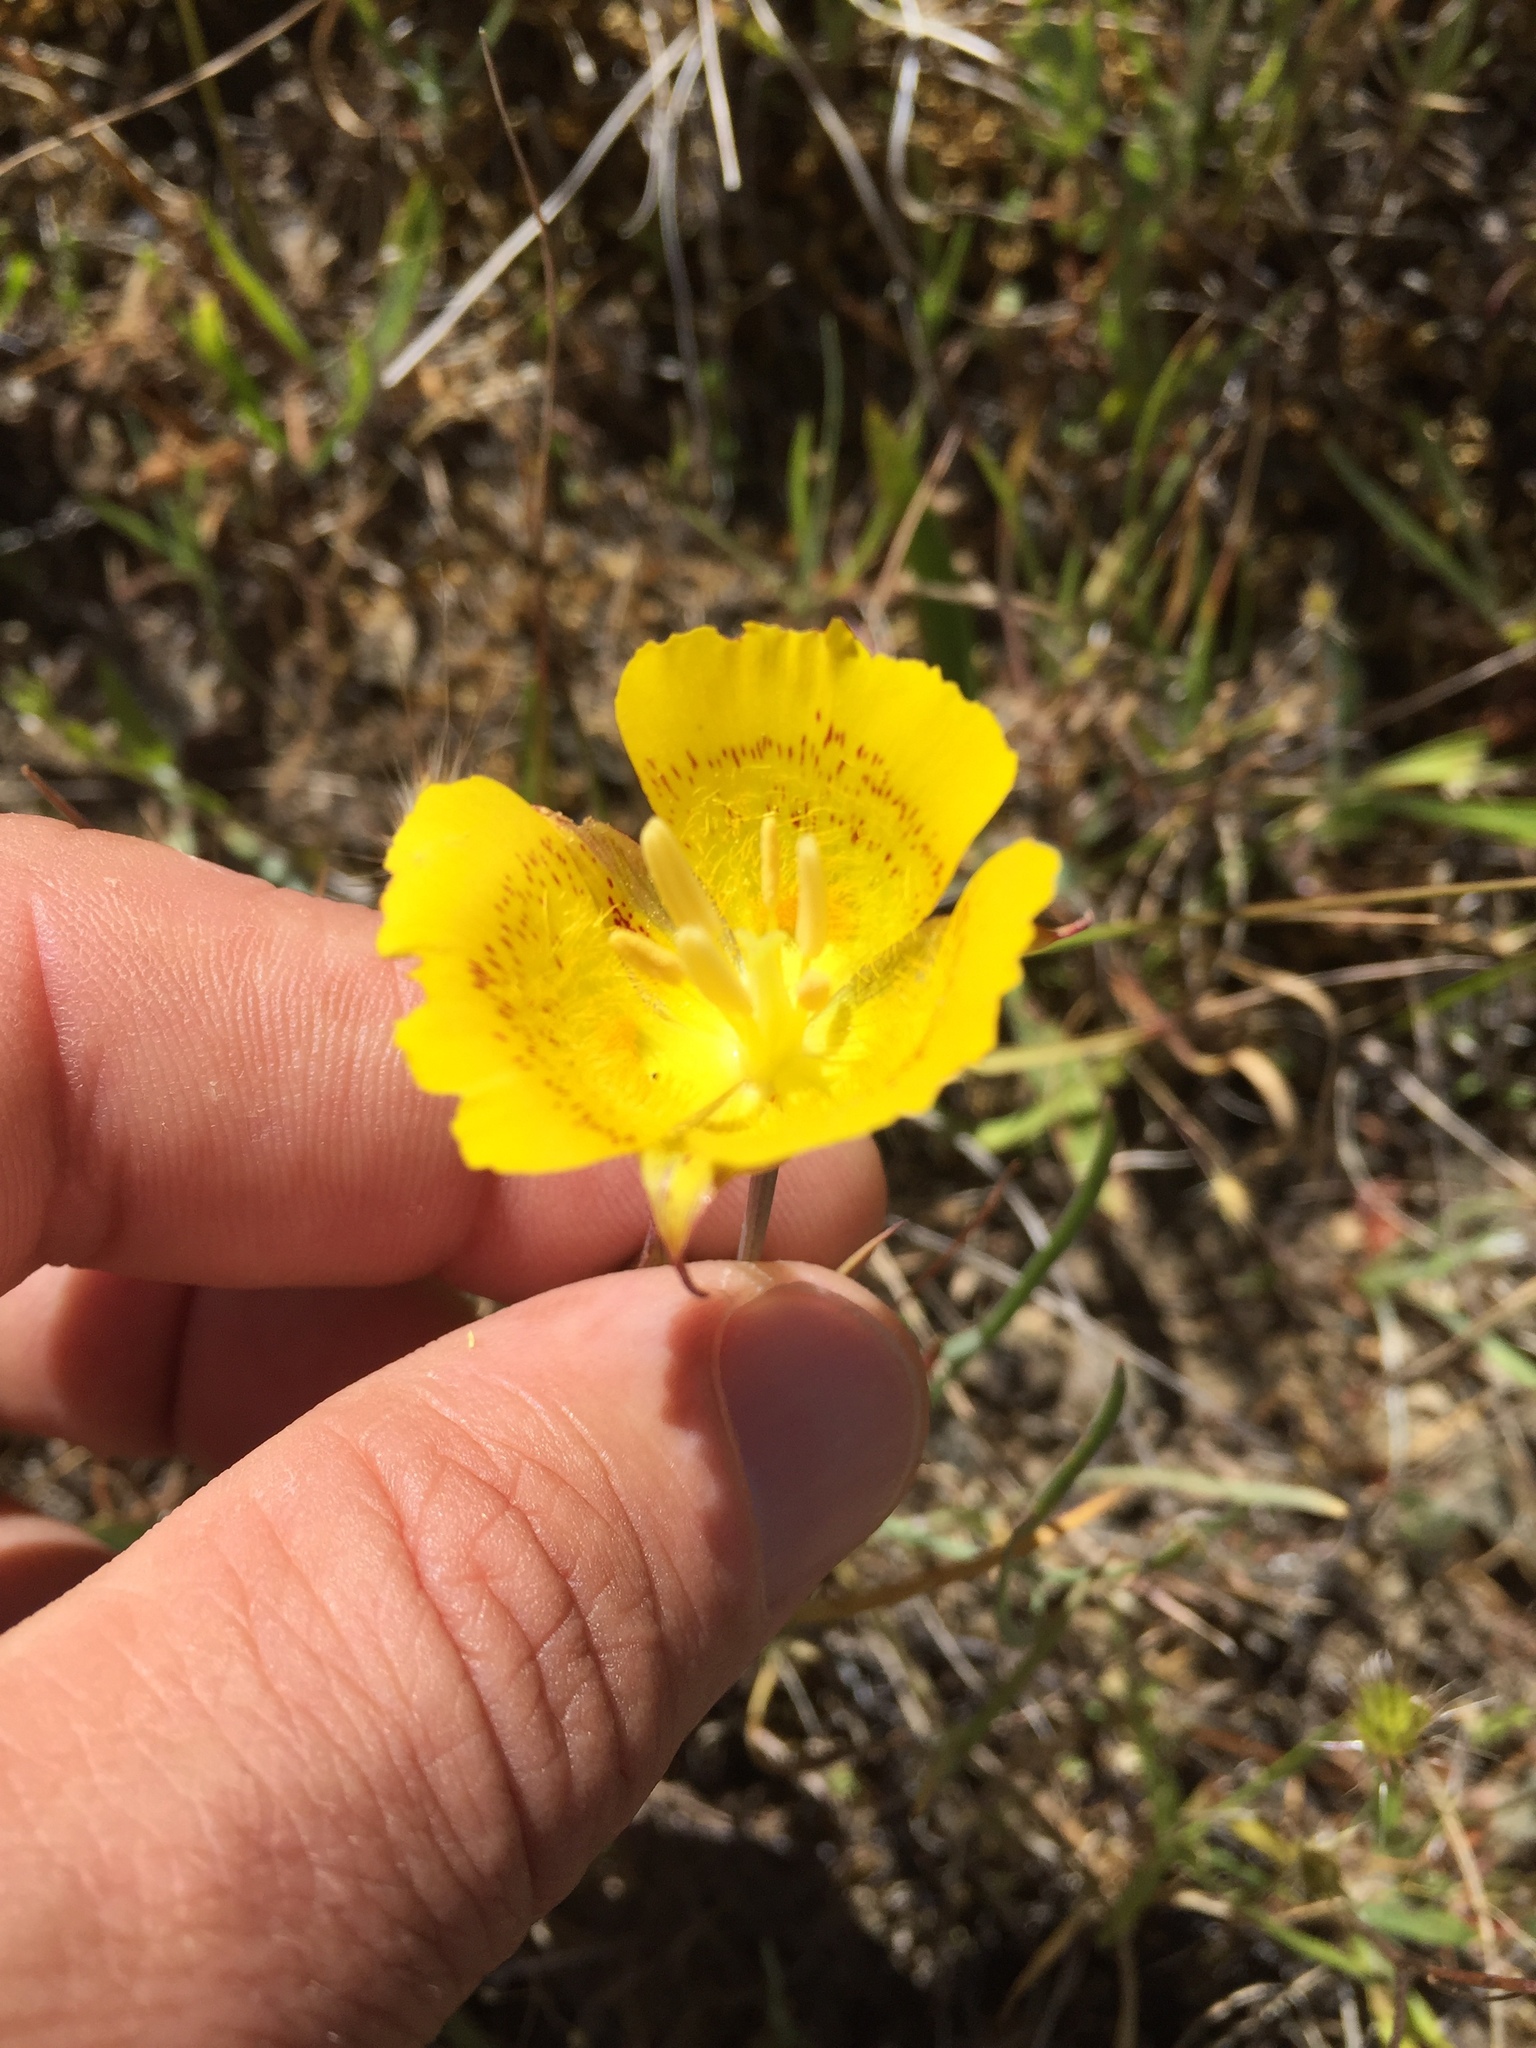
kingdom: Plantae
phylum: Tracheophyta
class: Liliopsida
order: Liliales
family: Liliaceae
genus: Calochortus
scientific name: Calochortus luteus
